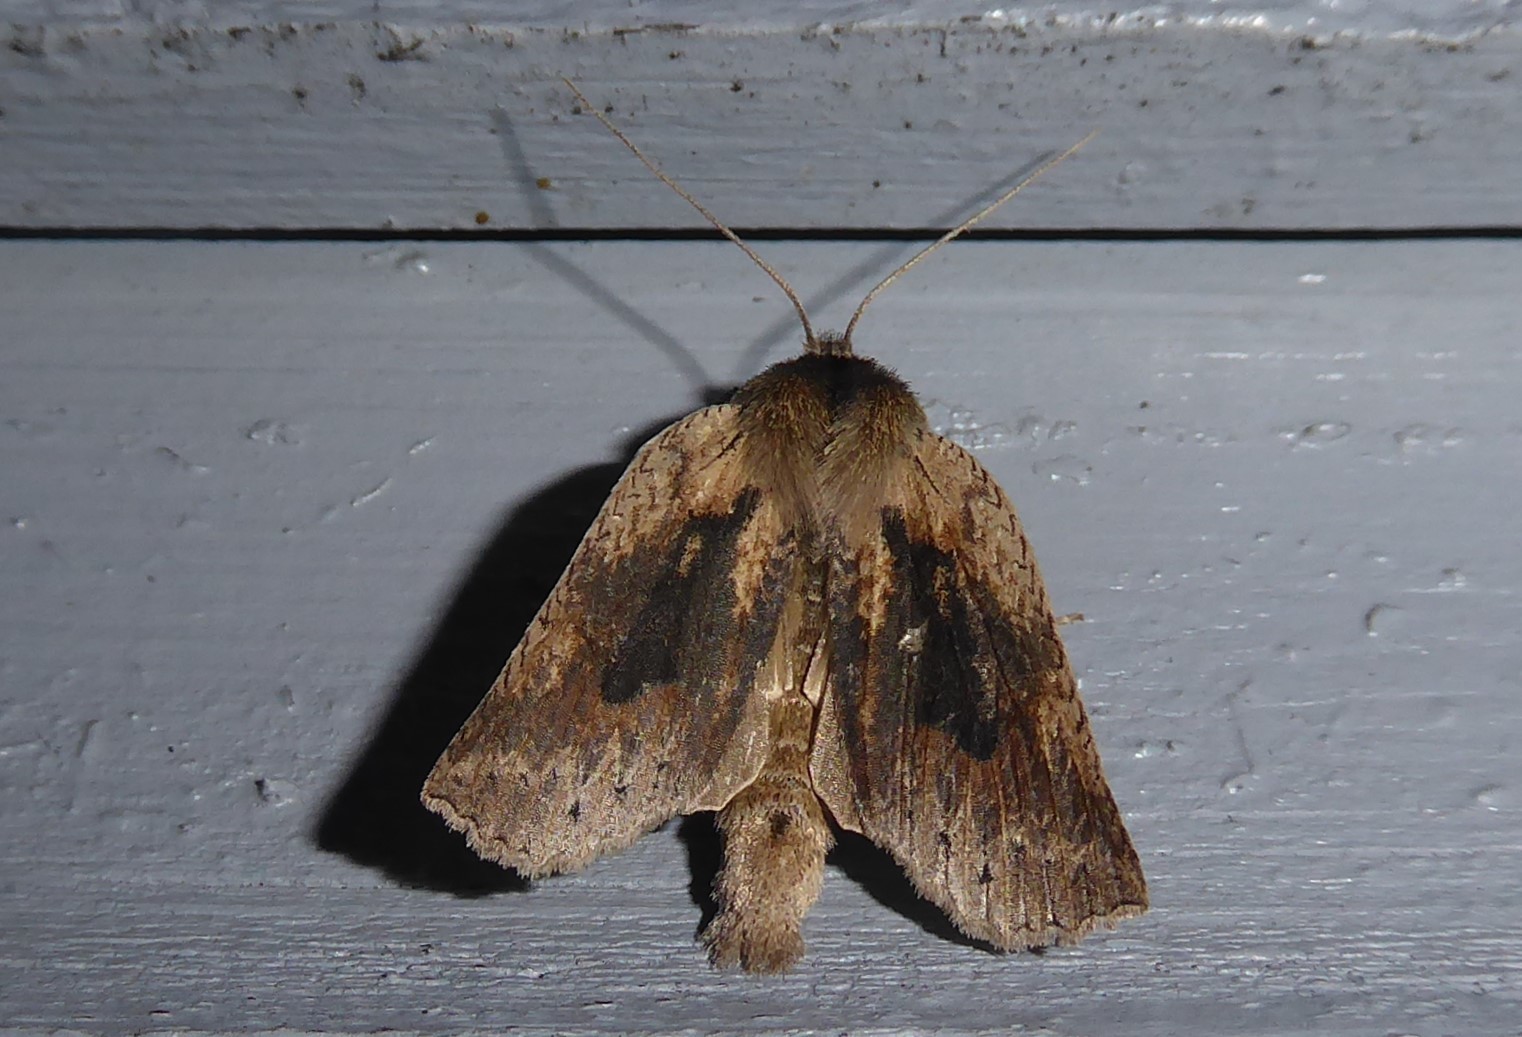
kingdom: Animalia
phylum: Arthropoda
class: Insecta
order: Lepidoptera
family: Geometridae
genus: Declana
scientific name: Declana leptomera
